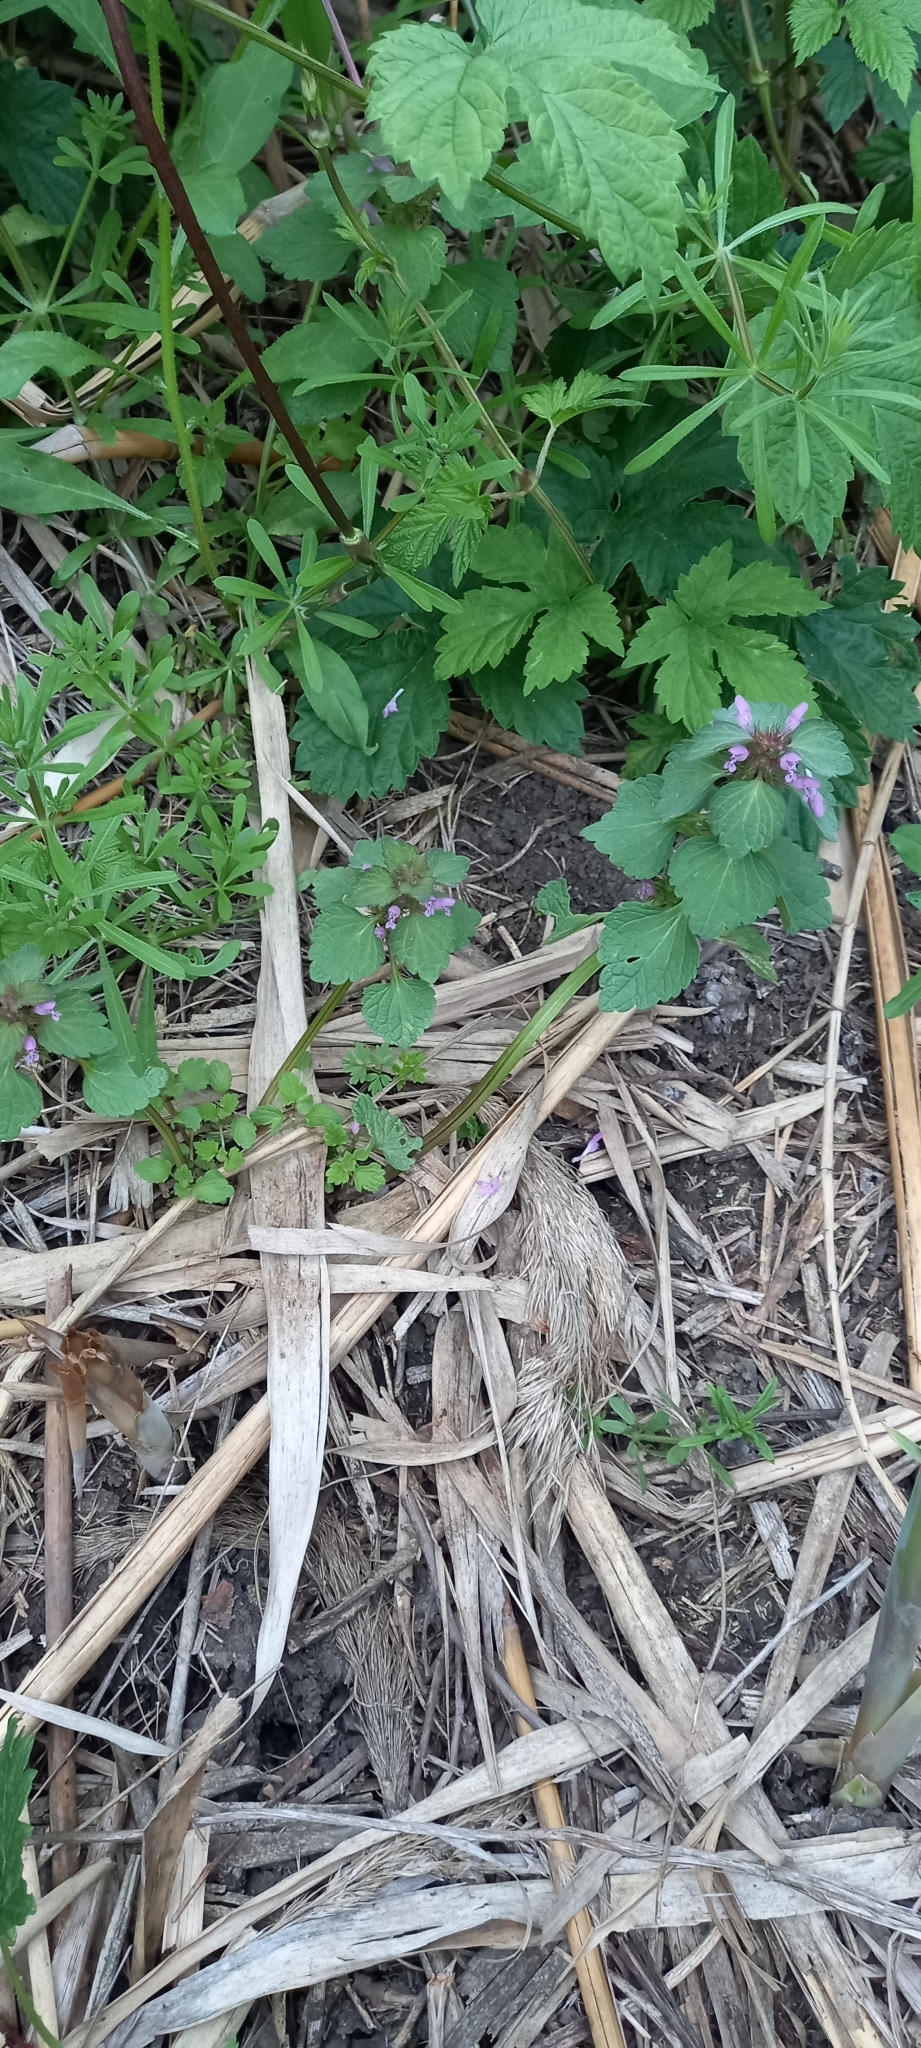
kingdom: Plantae
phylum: Tracheophyta
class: Magnoliopsida
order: Lamiales
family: Lamiaceae
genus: Lamium
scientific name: Lamium purpureum
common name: Red dead-nettle
